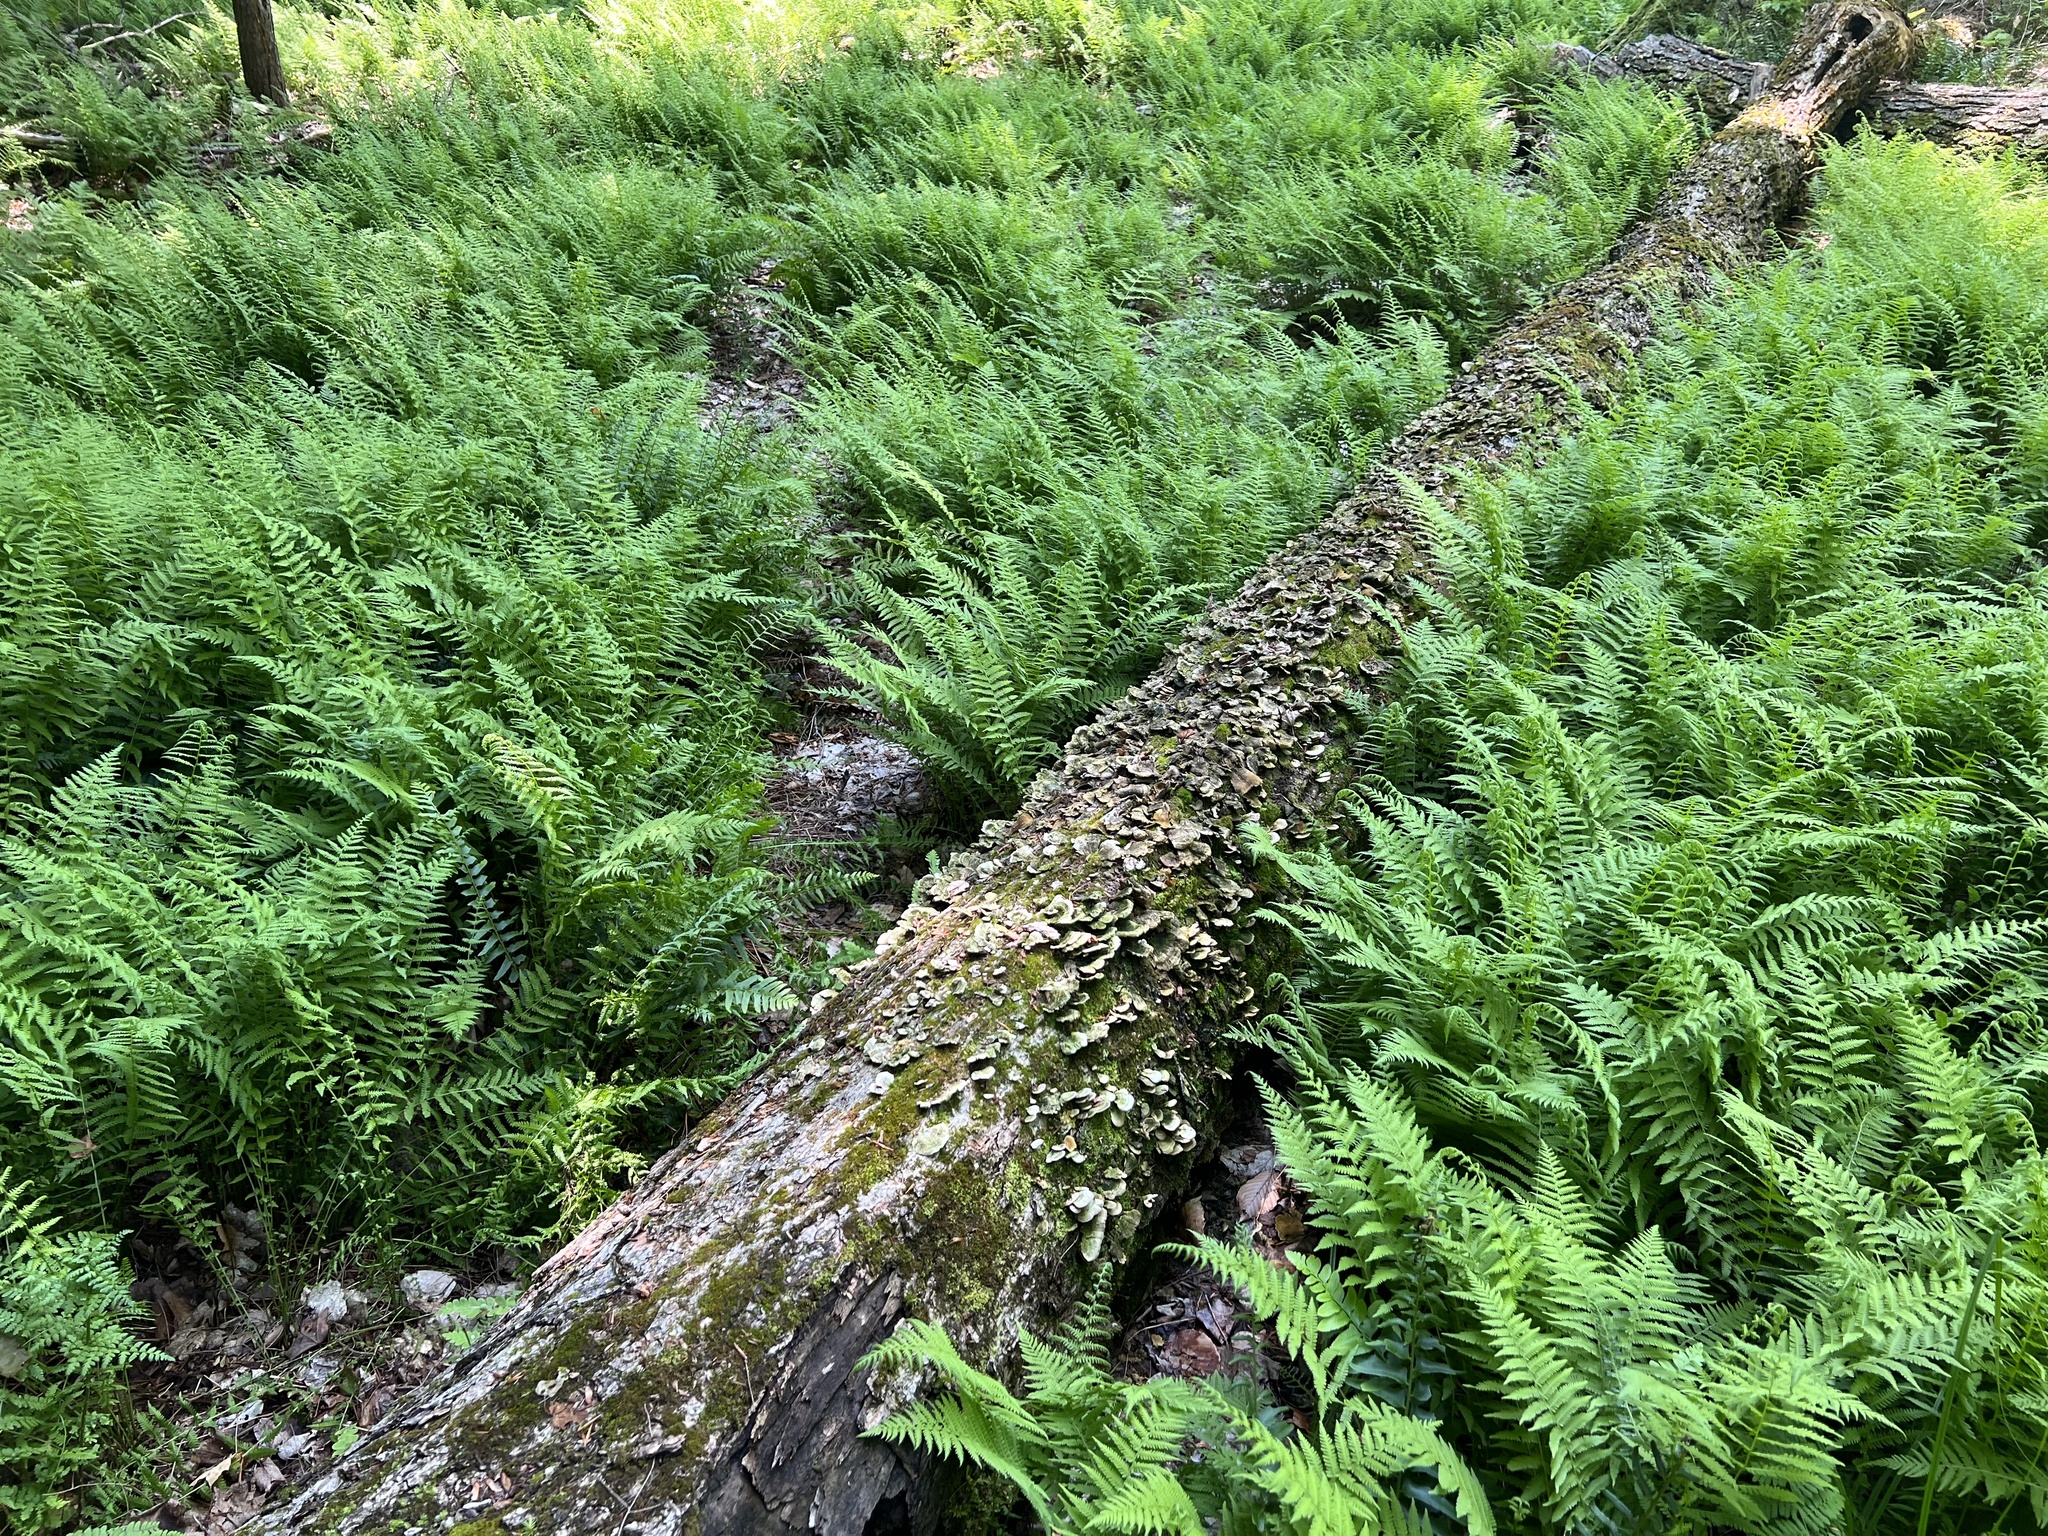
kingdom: Plantae
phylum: Tracheophyta
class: Polypodiopsida
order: Polypodiales
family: Thelypteridaceae
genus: Amauropelta
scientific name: Amauropelta noveboracensis
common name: New york fern
